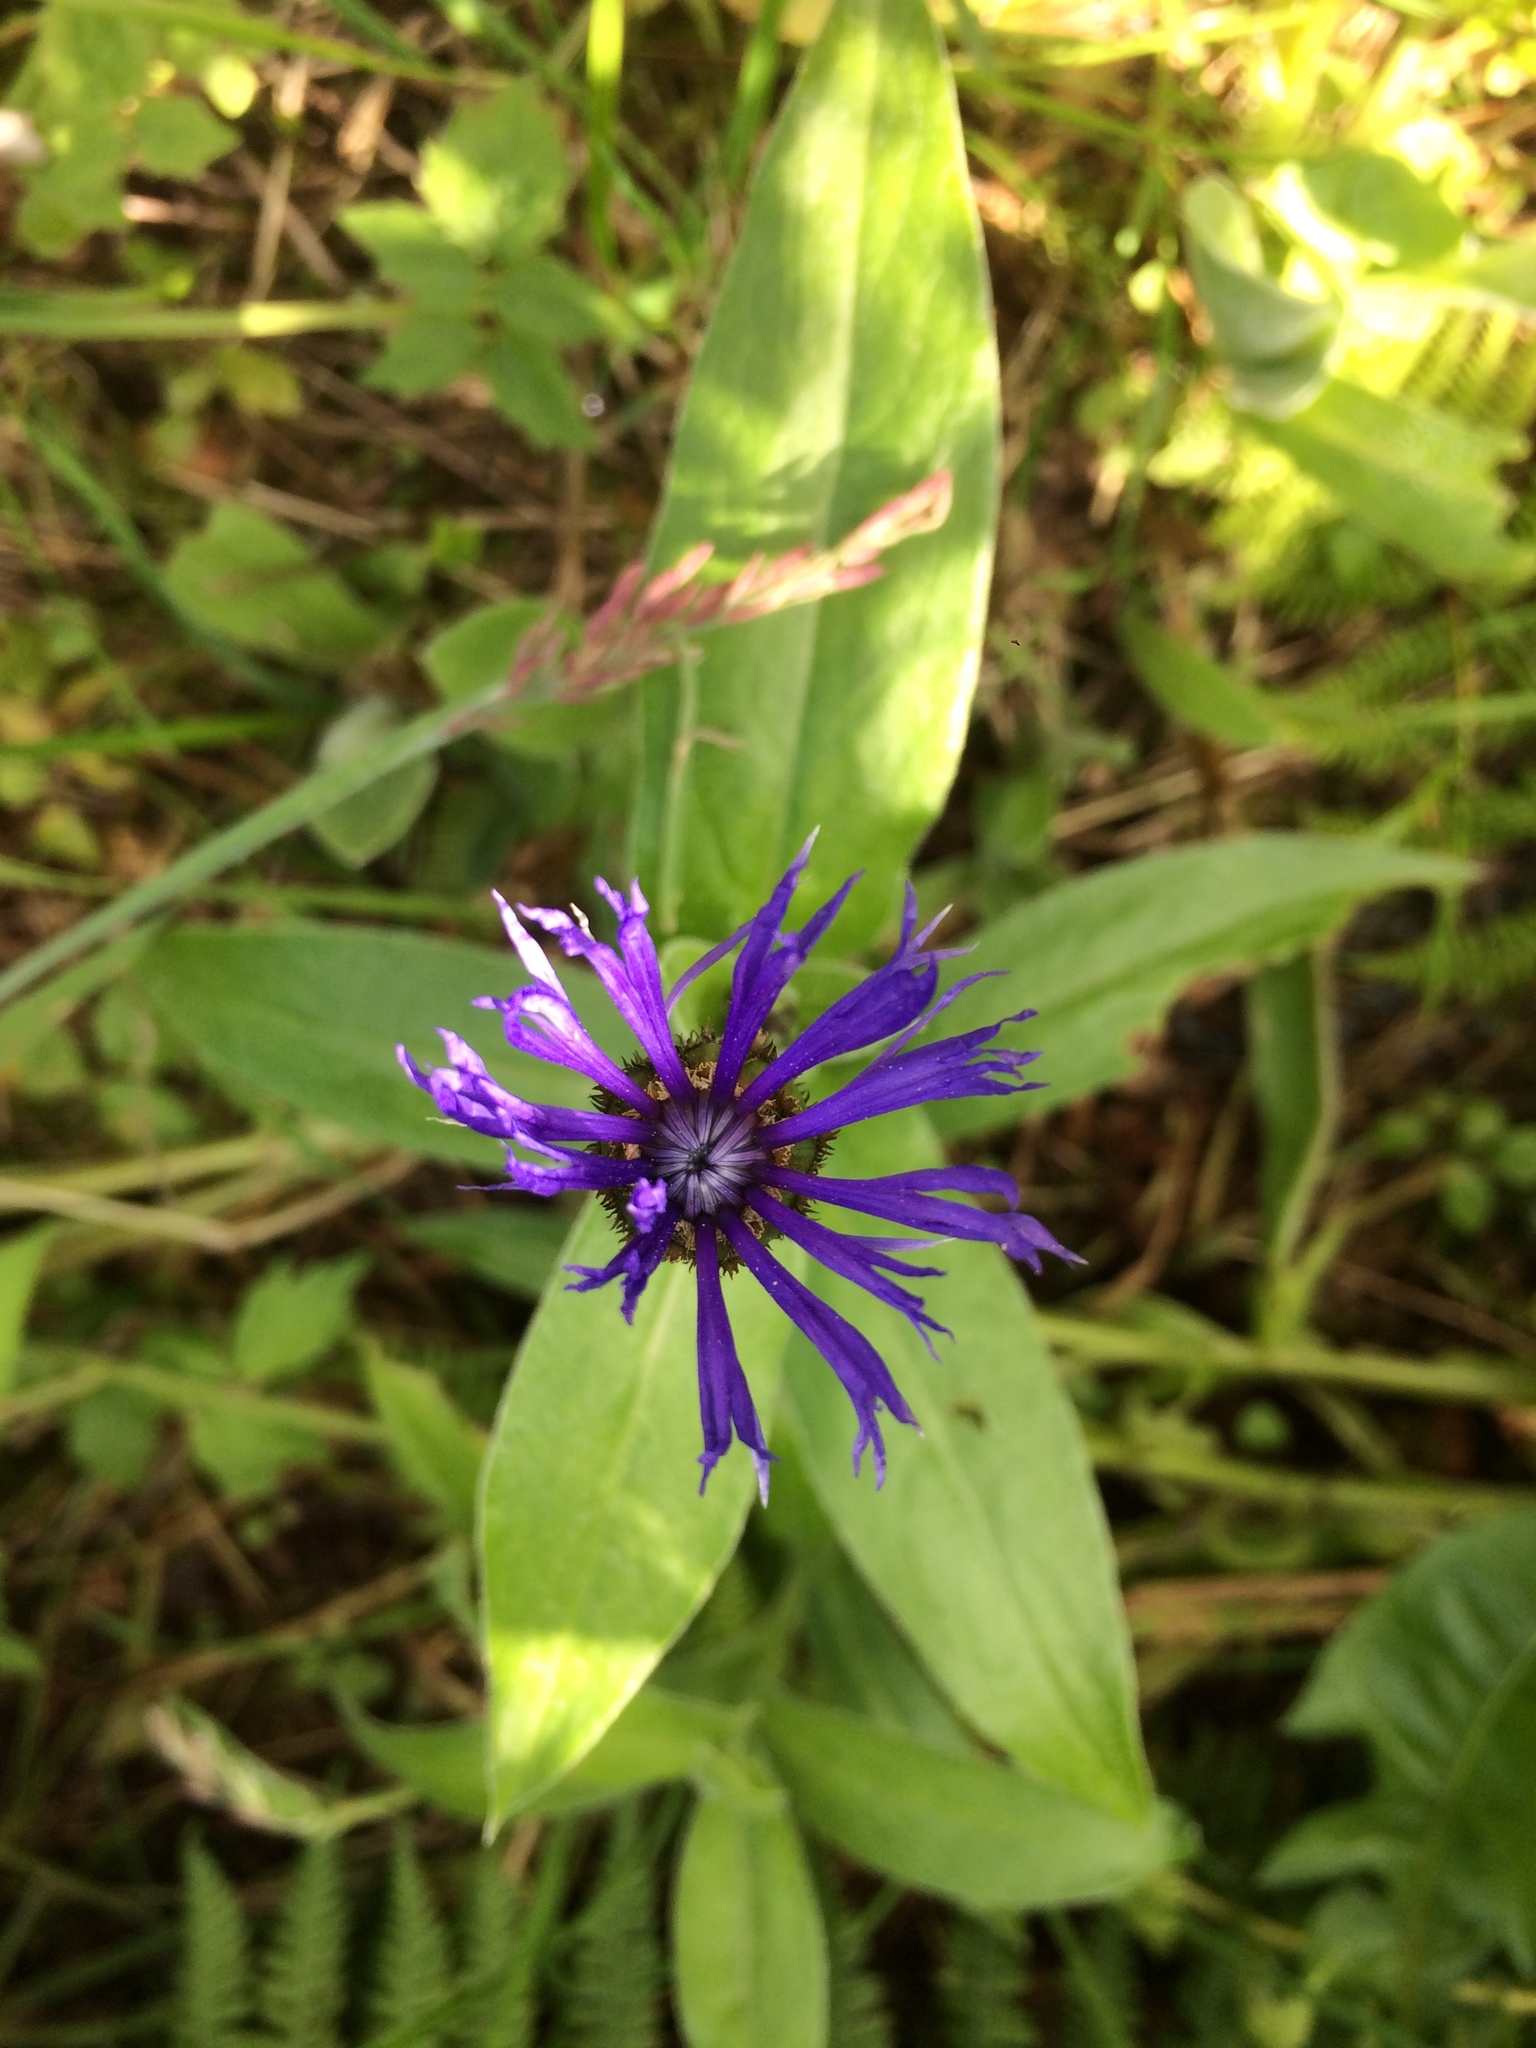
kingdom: Plantae
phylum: Tracheophyta
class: Magnoliopsida
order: Asterales
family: Asteraceae
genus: Centaurea
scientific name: Centaurea montana
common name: Perennial cornflower
